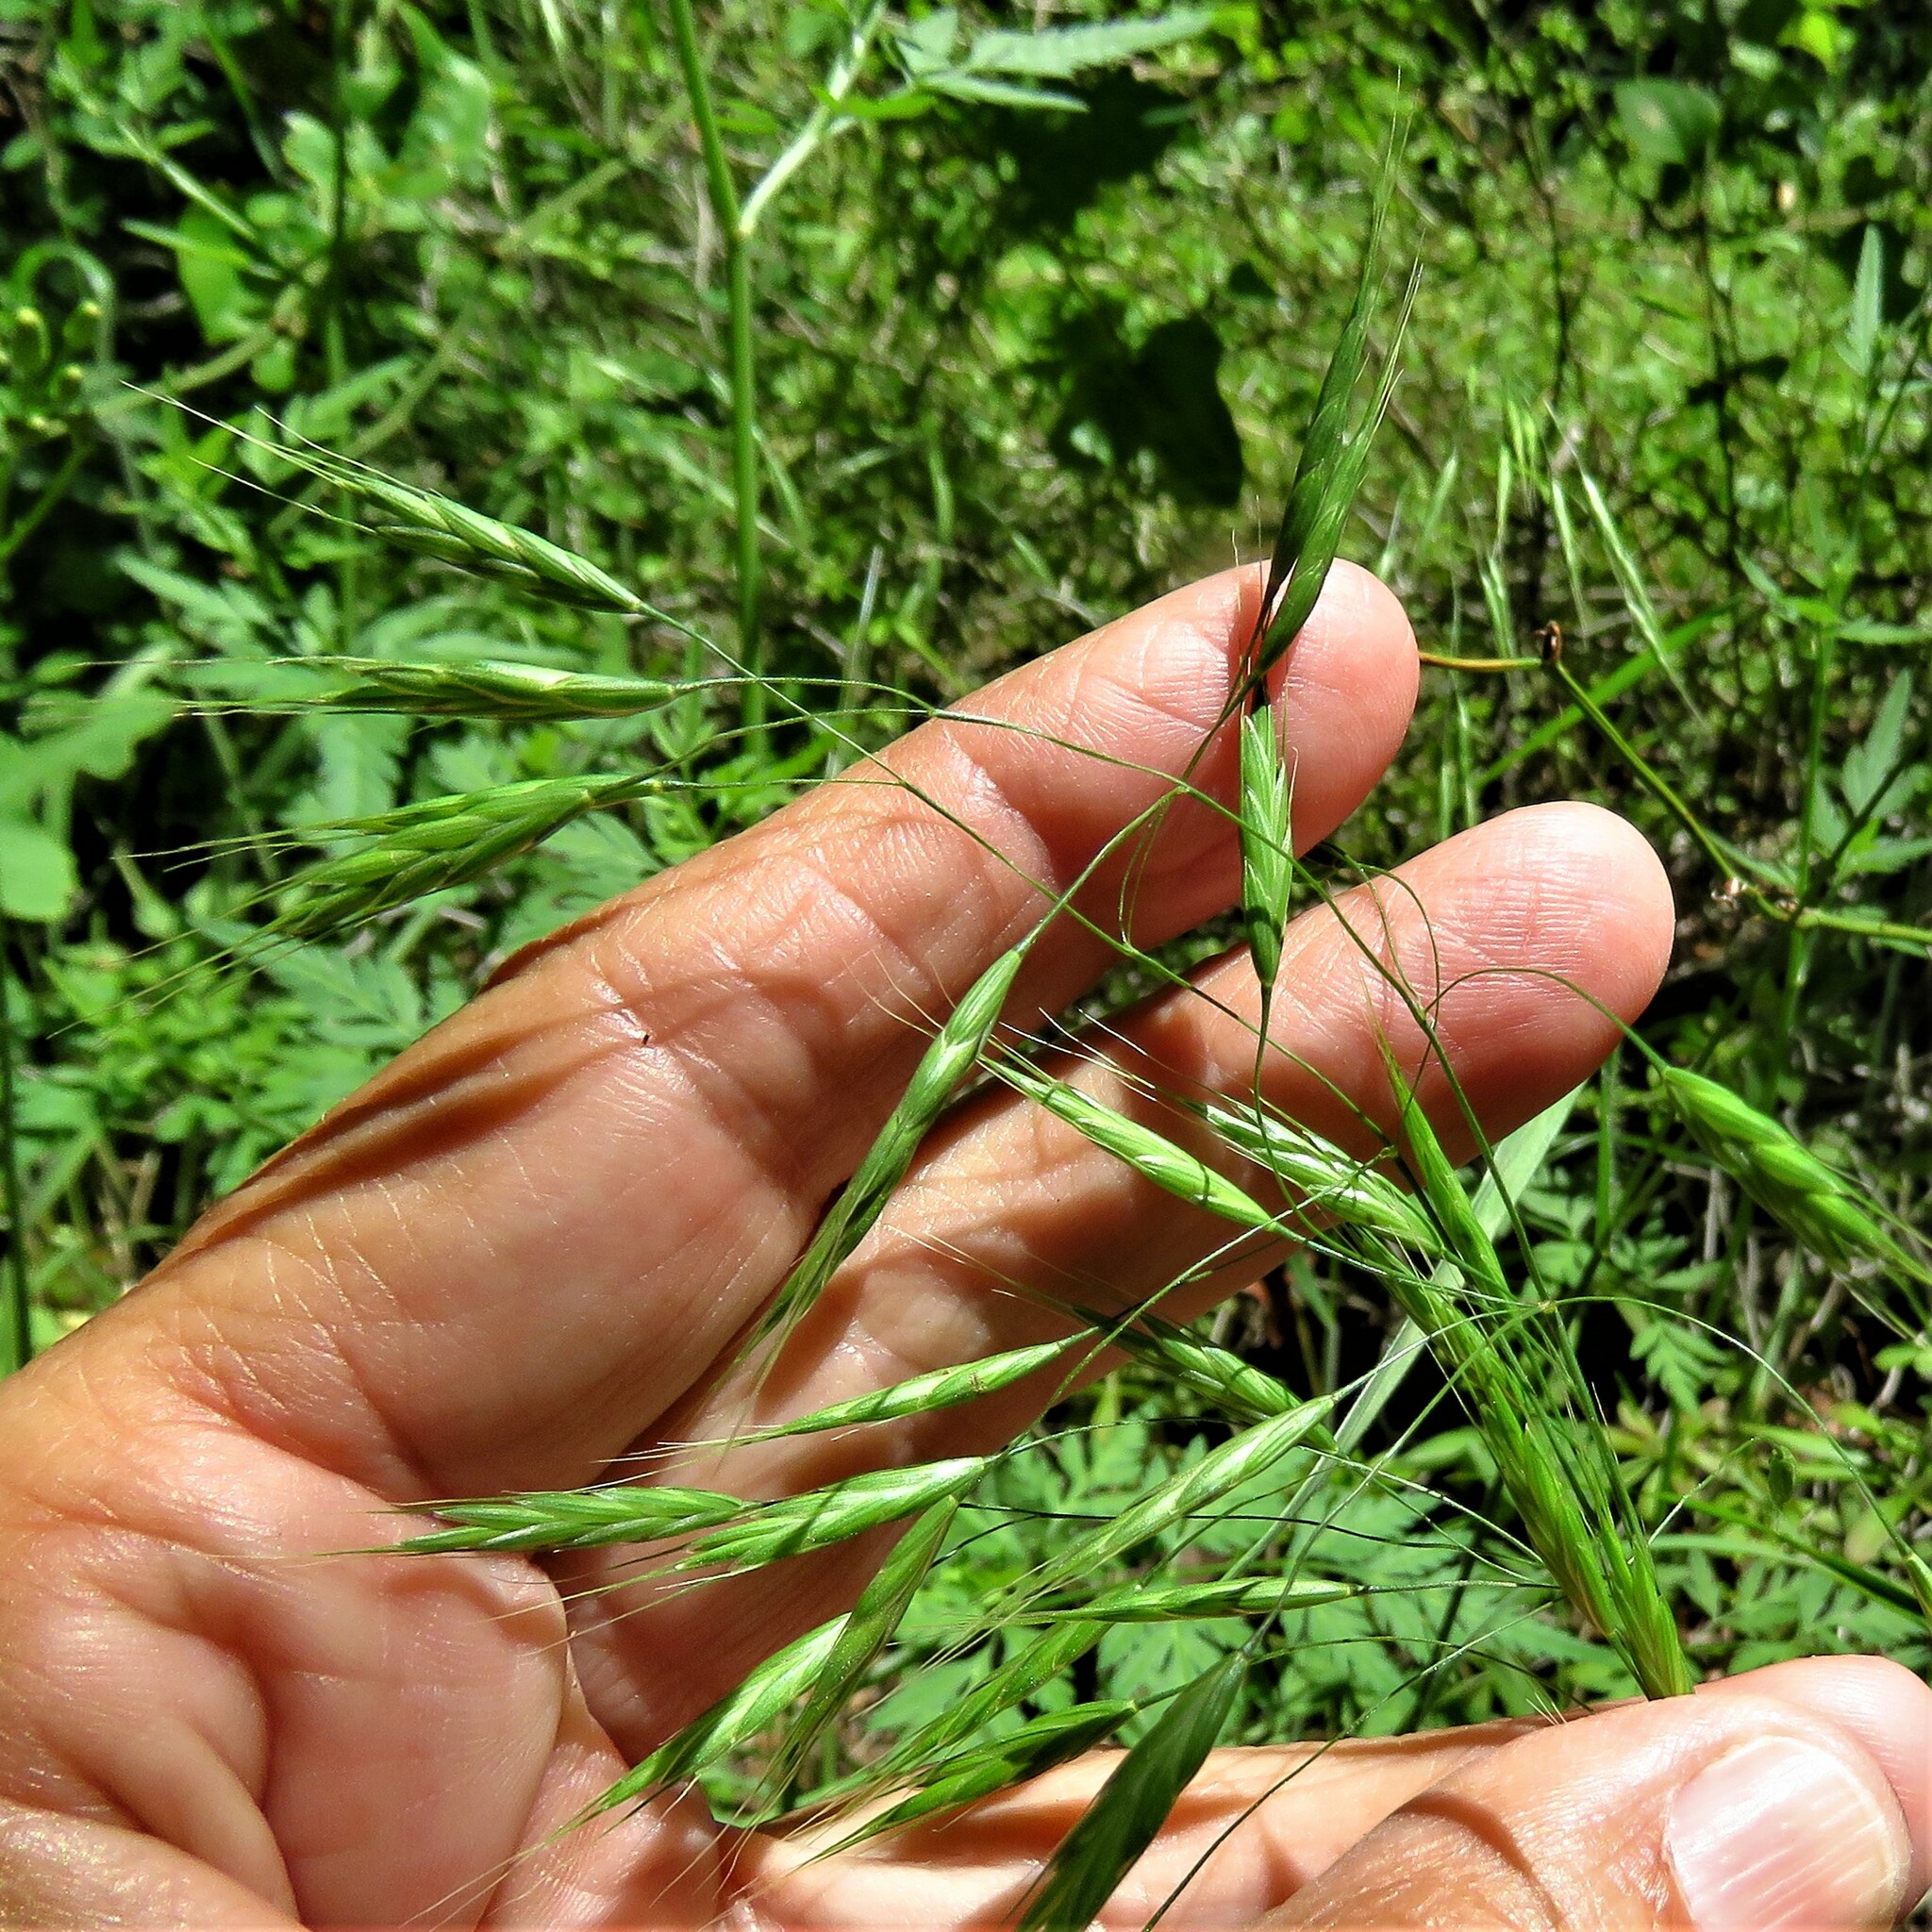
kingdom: Plantae
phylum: Tracheophyta
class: Liliopsida
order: Poales
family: Poaceae
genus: Bromus
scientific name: Bromus japonicus
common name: Japanese brome
